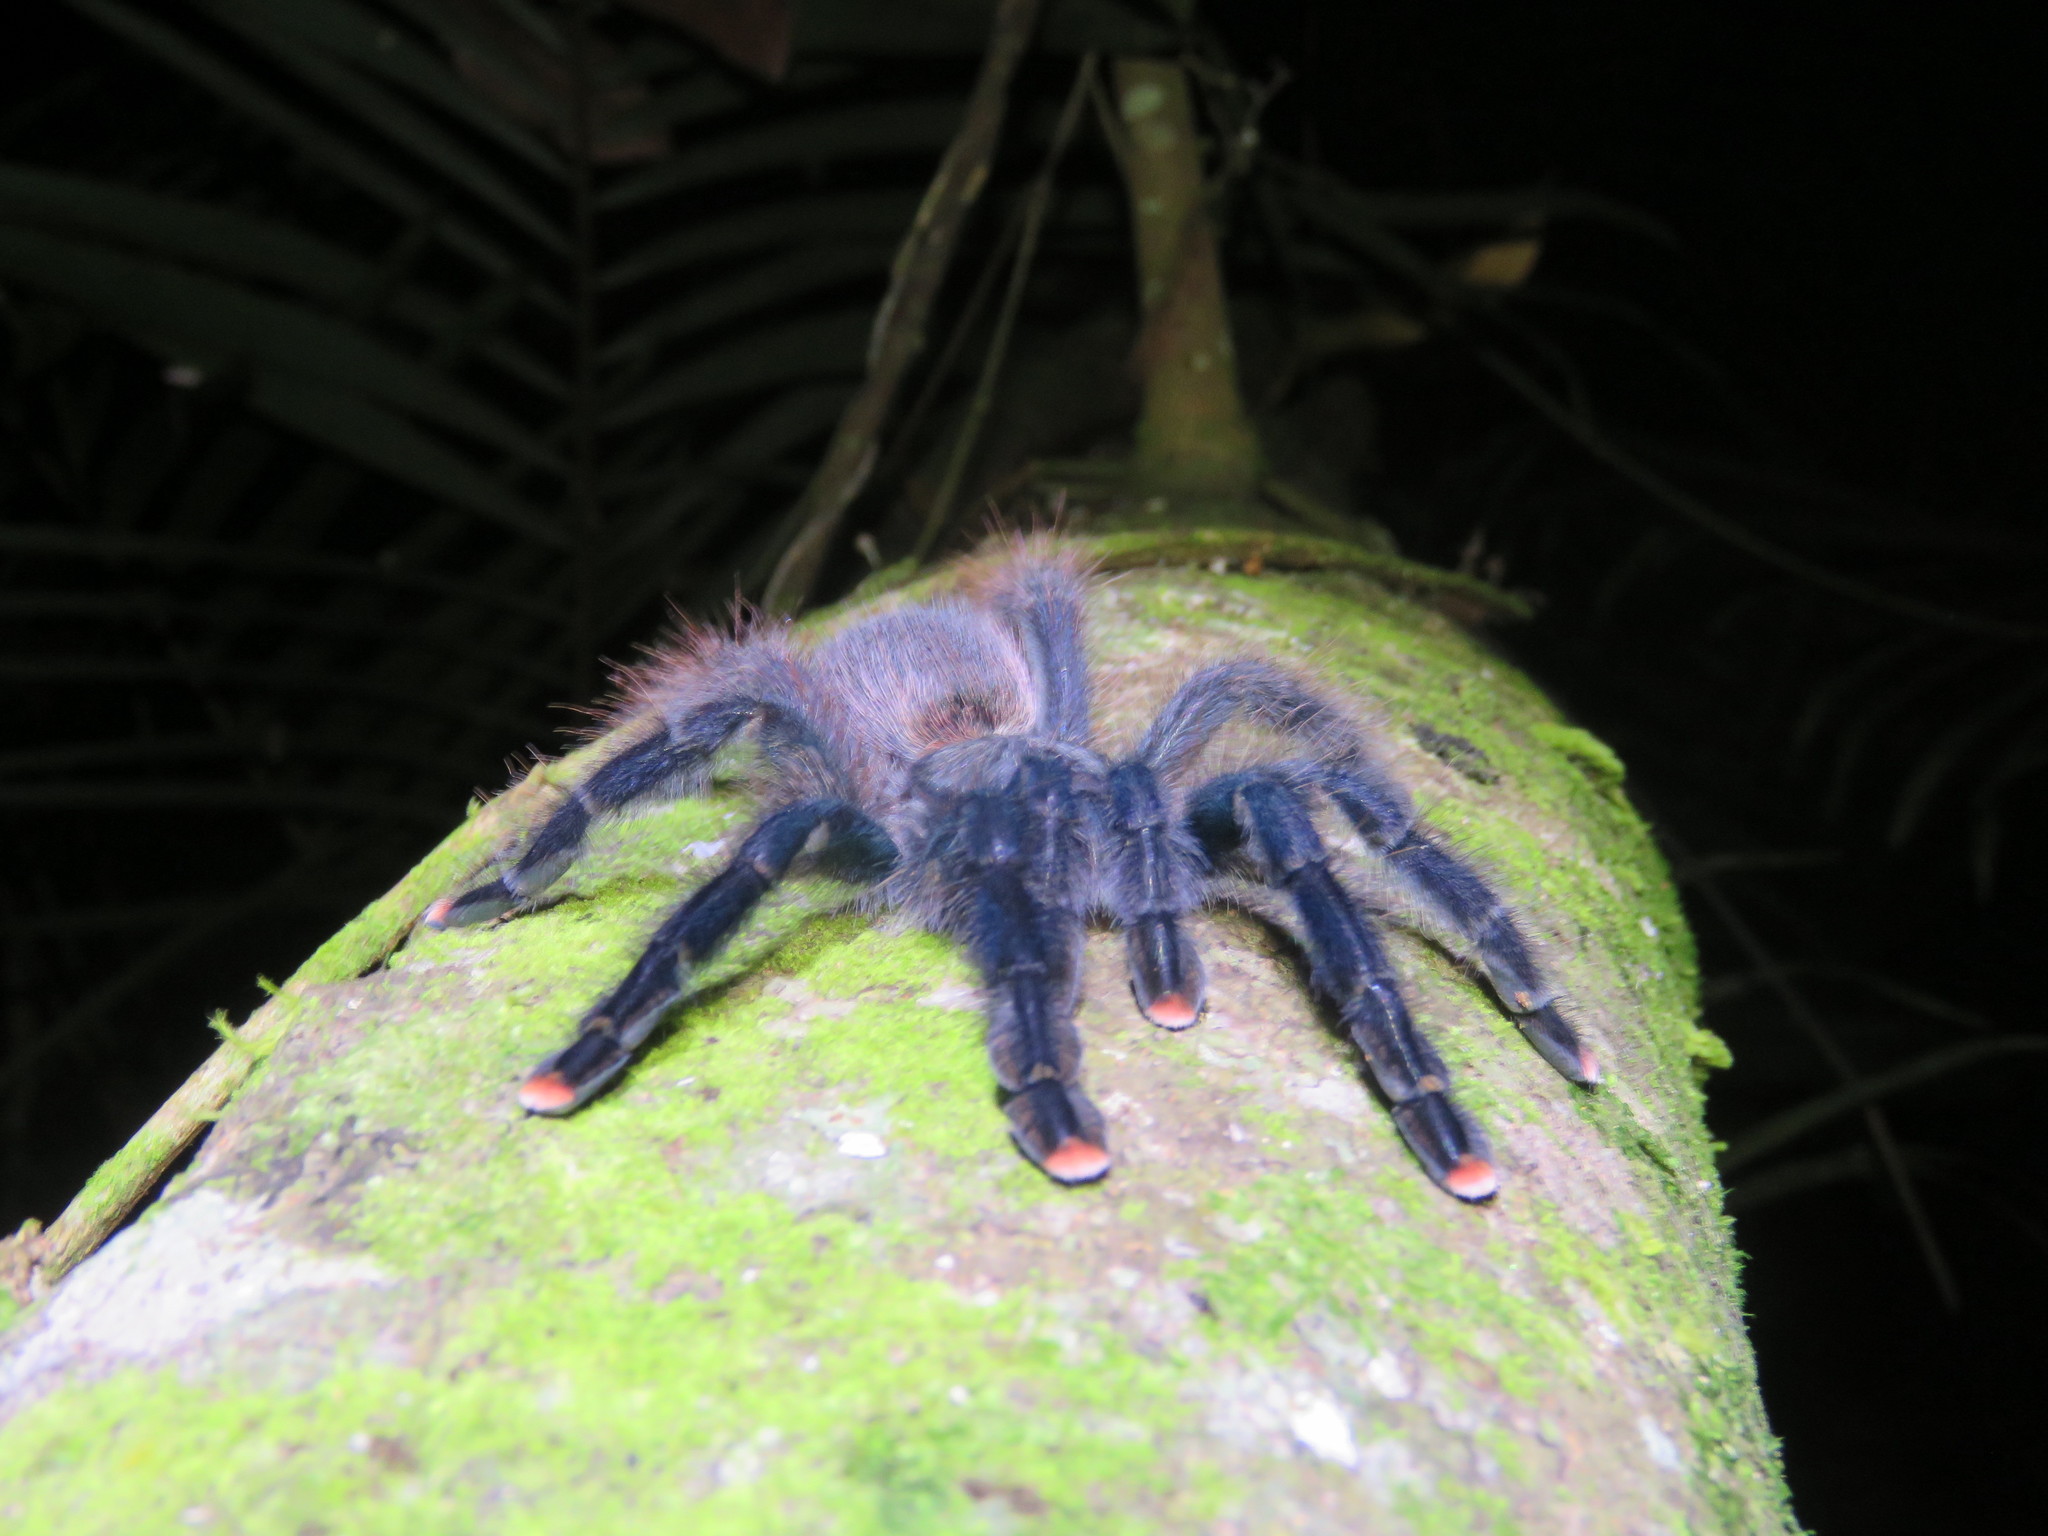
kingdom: Animalia
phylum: Arthropoda
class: Arachnida
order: Araneae
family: Theraphosidae
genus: Avicularia
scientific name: Avicularia avicularia
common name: Tarantula spiders
